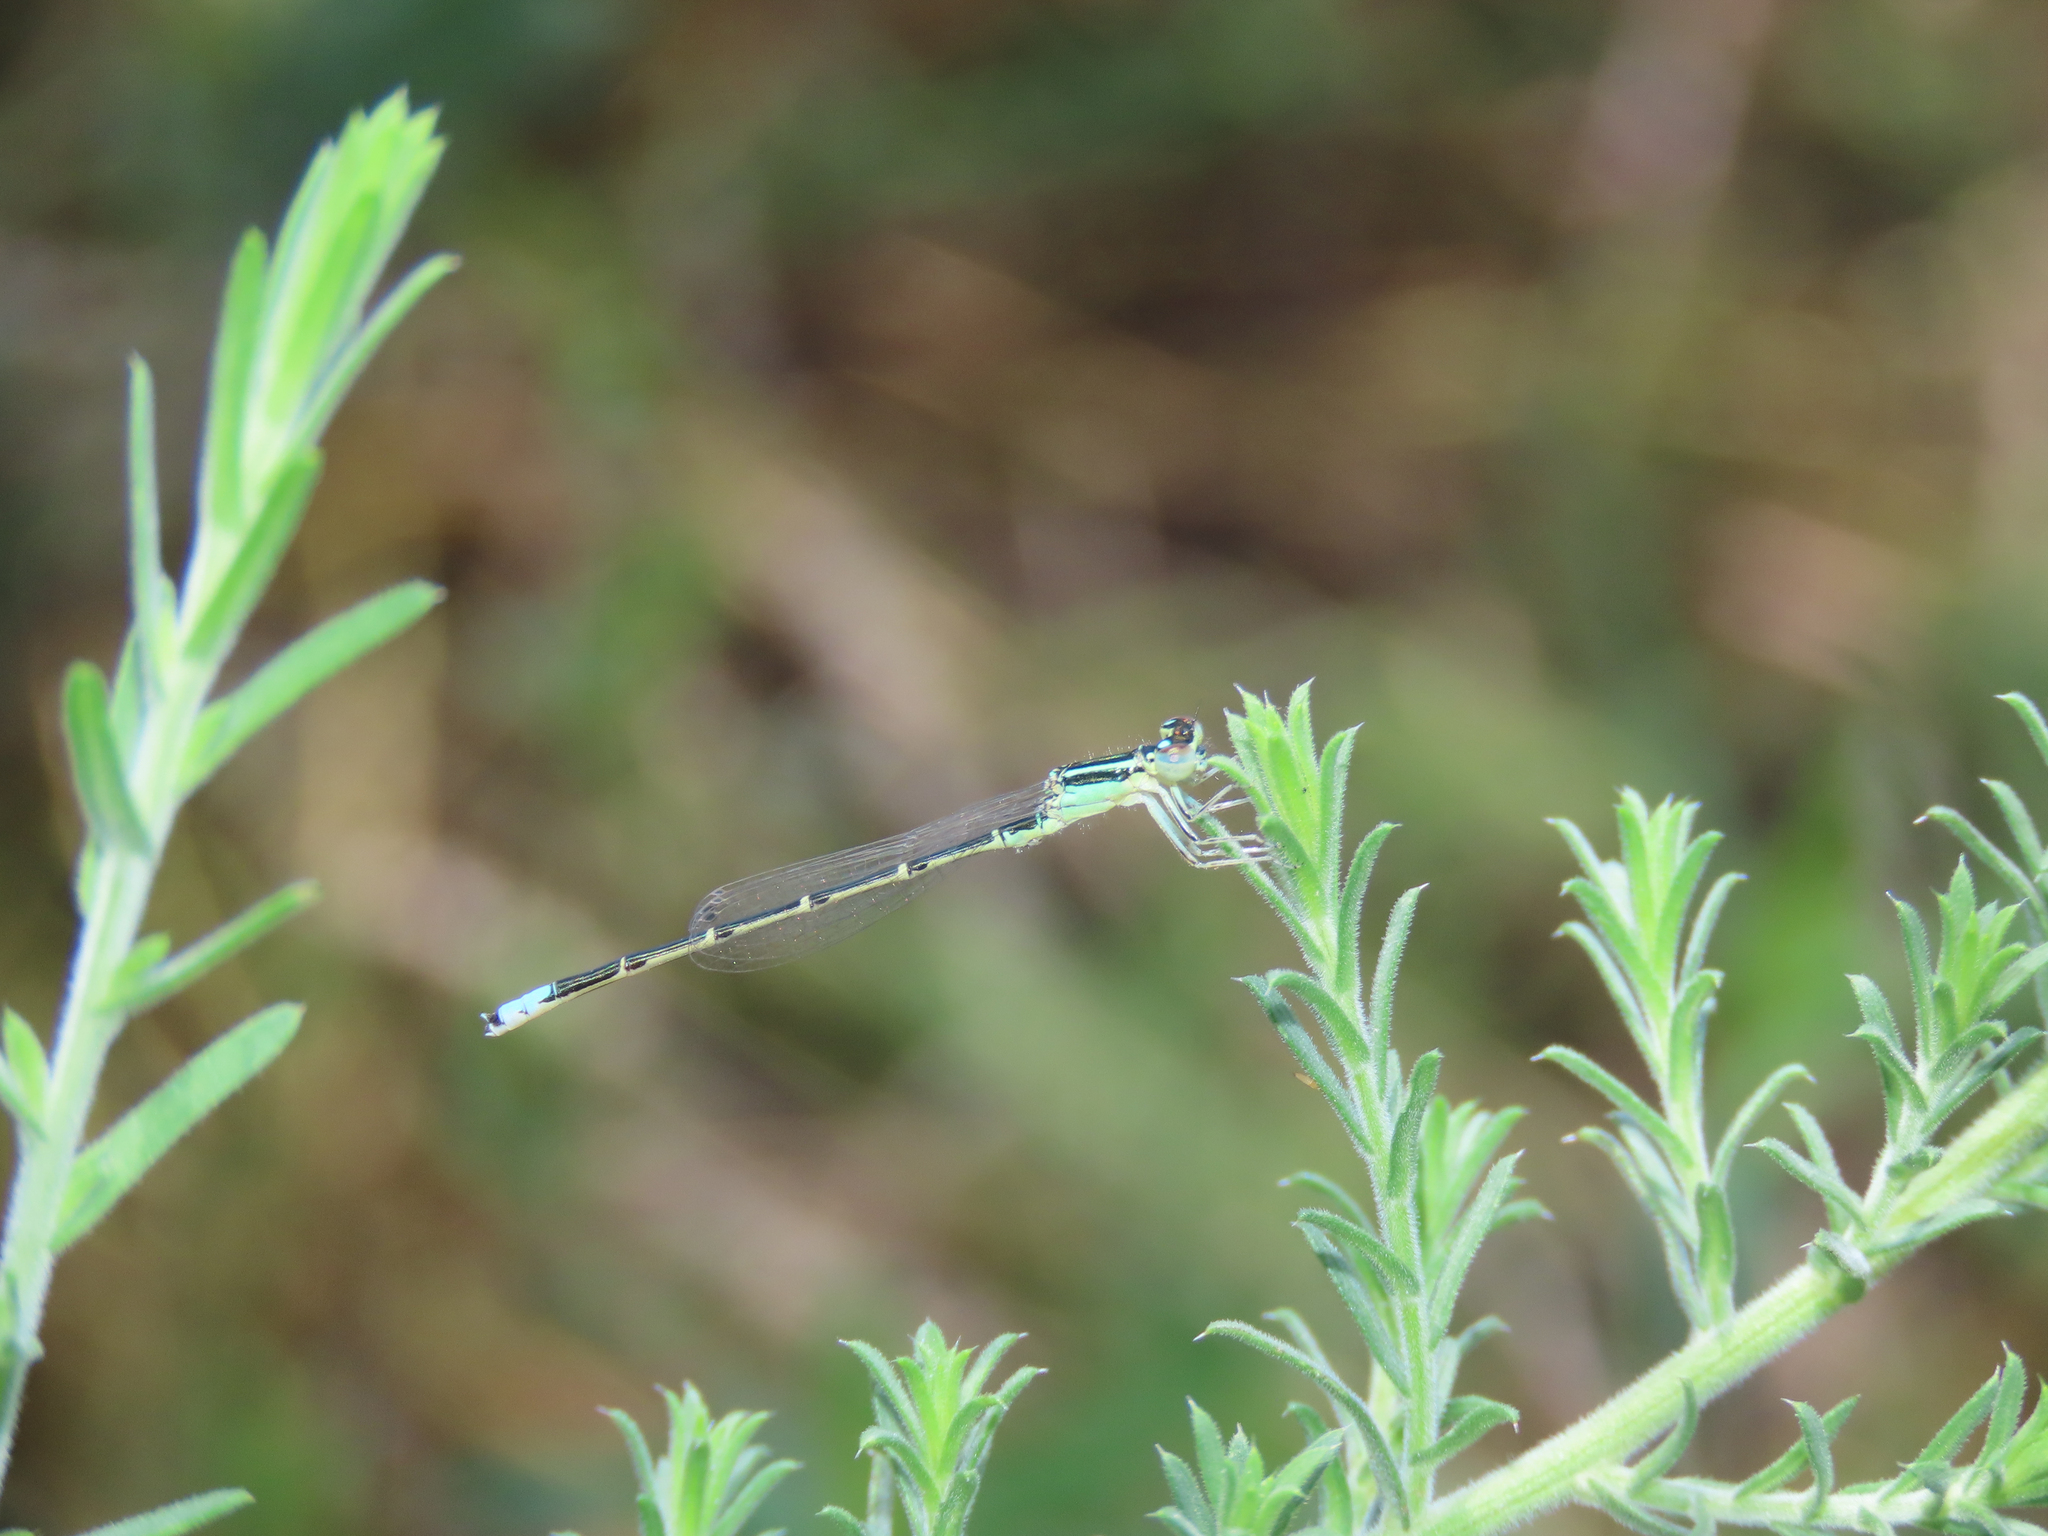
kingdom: Animalia
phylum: Arthropoda
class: Insecta
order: Odonata
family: Coenagrionidae
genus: Ischnura
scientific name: Ischnura demorsa
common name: Mexican forktail
